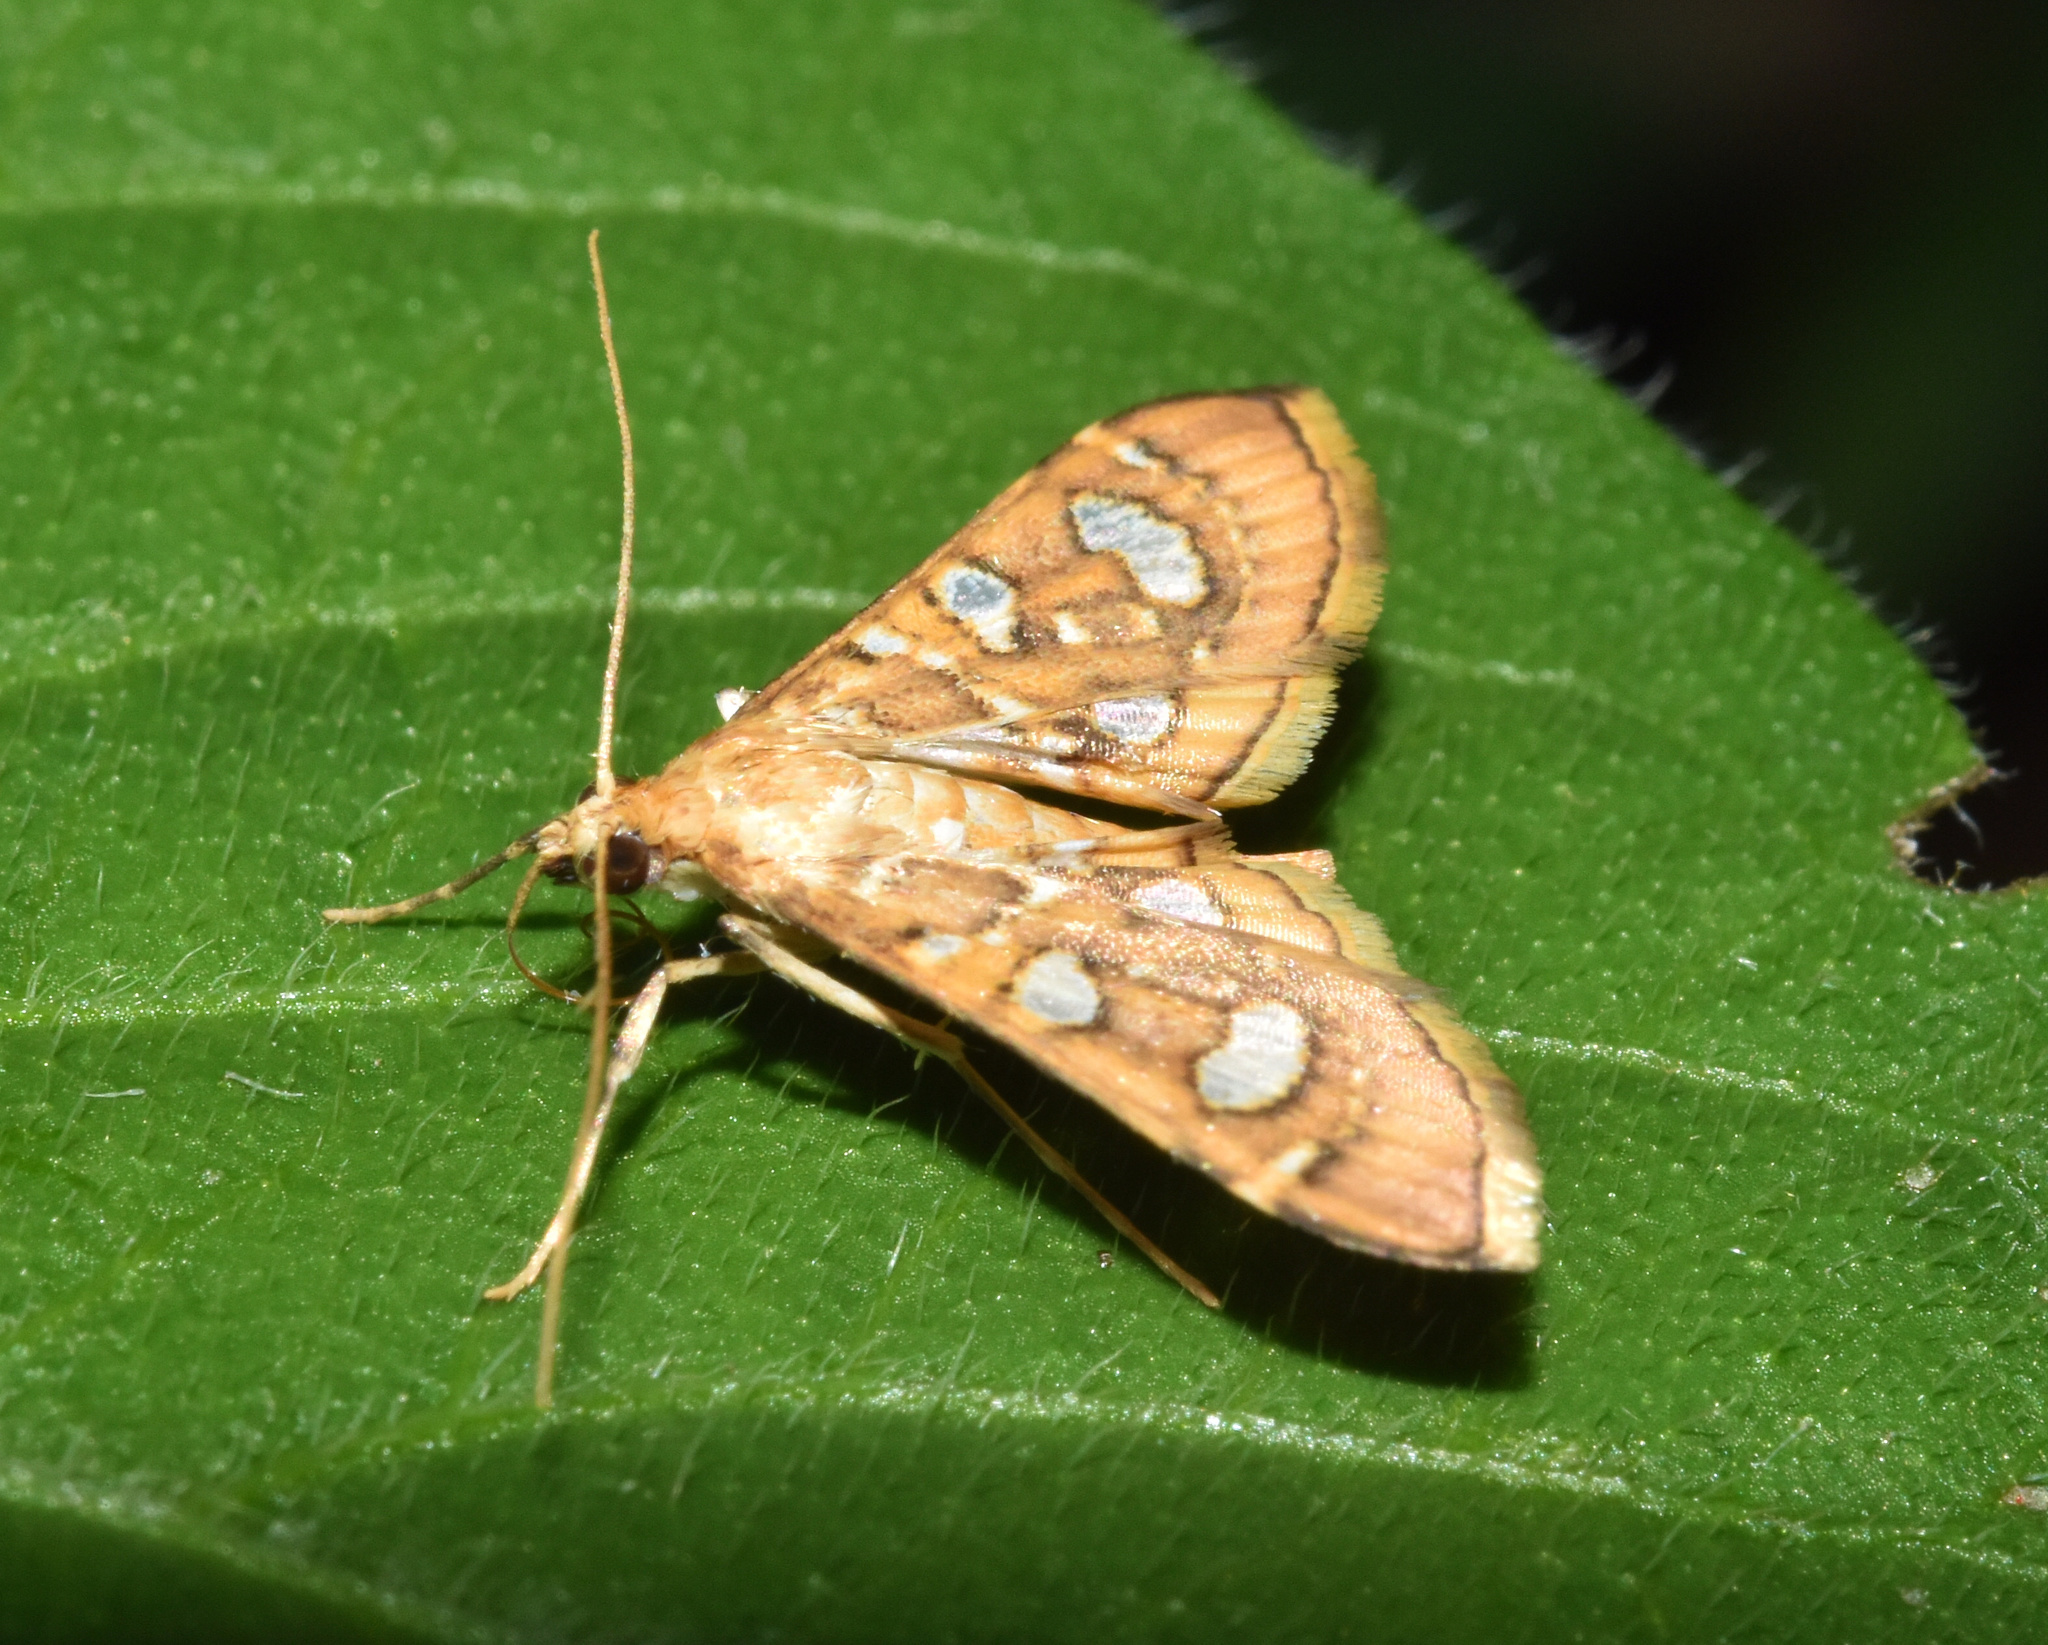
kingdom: Animalia
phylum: Arthropoda
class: Insecta
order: Lepidoptera
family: Crambidae
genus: Glyphodella
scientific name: Glyphodella flavibrunnea
